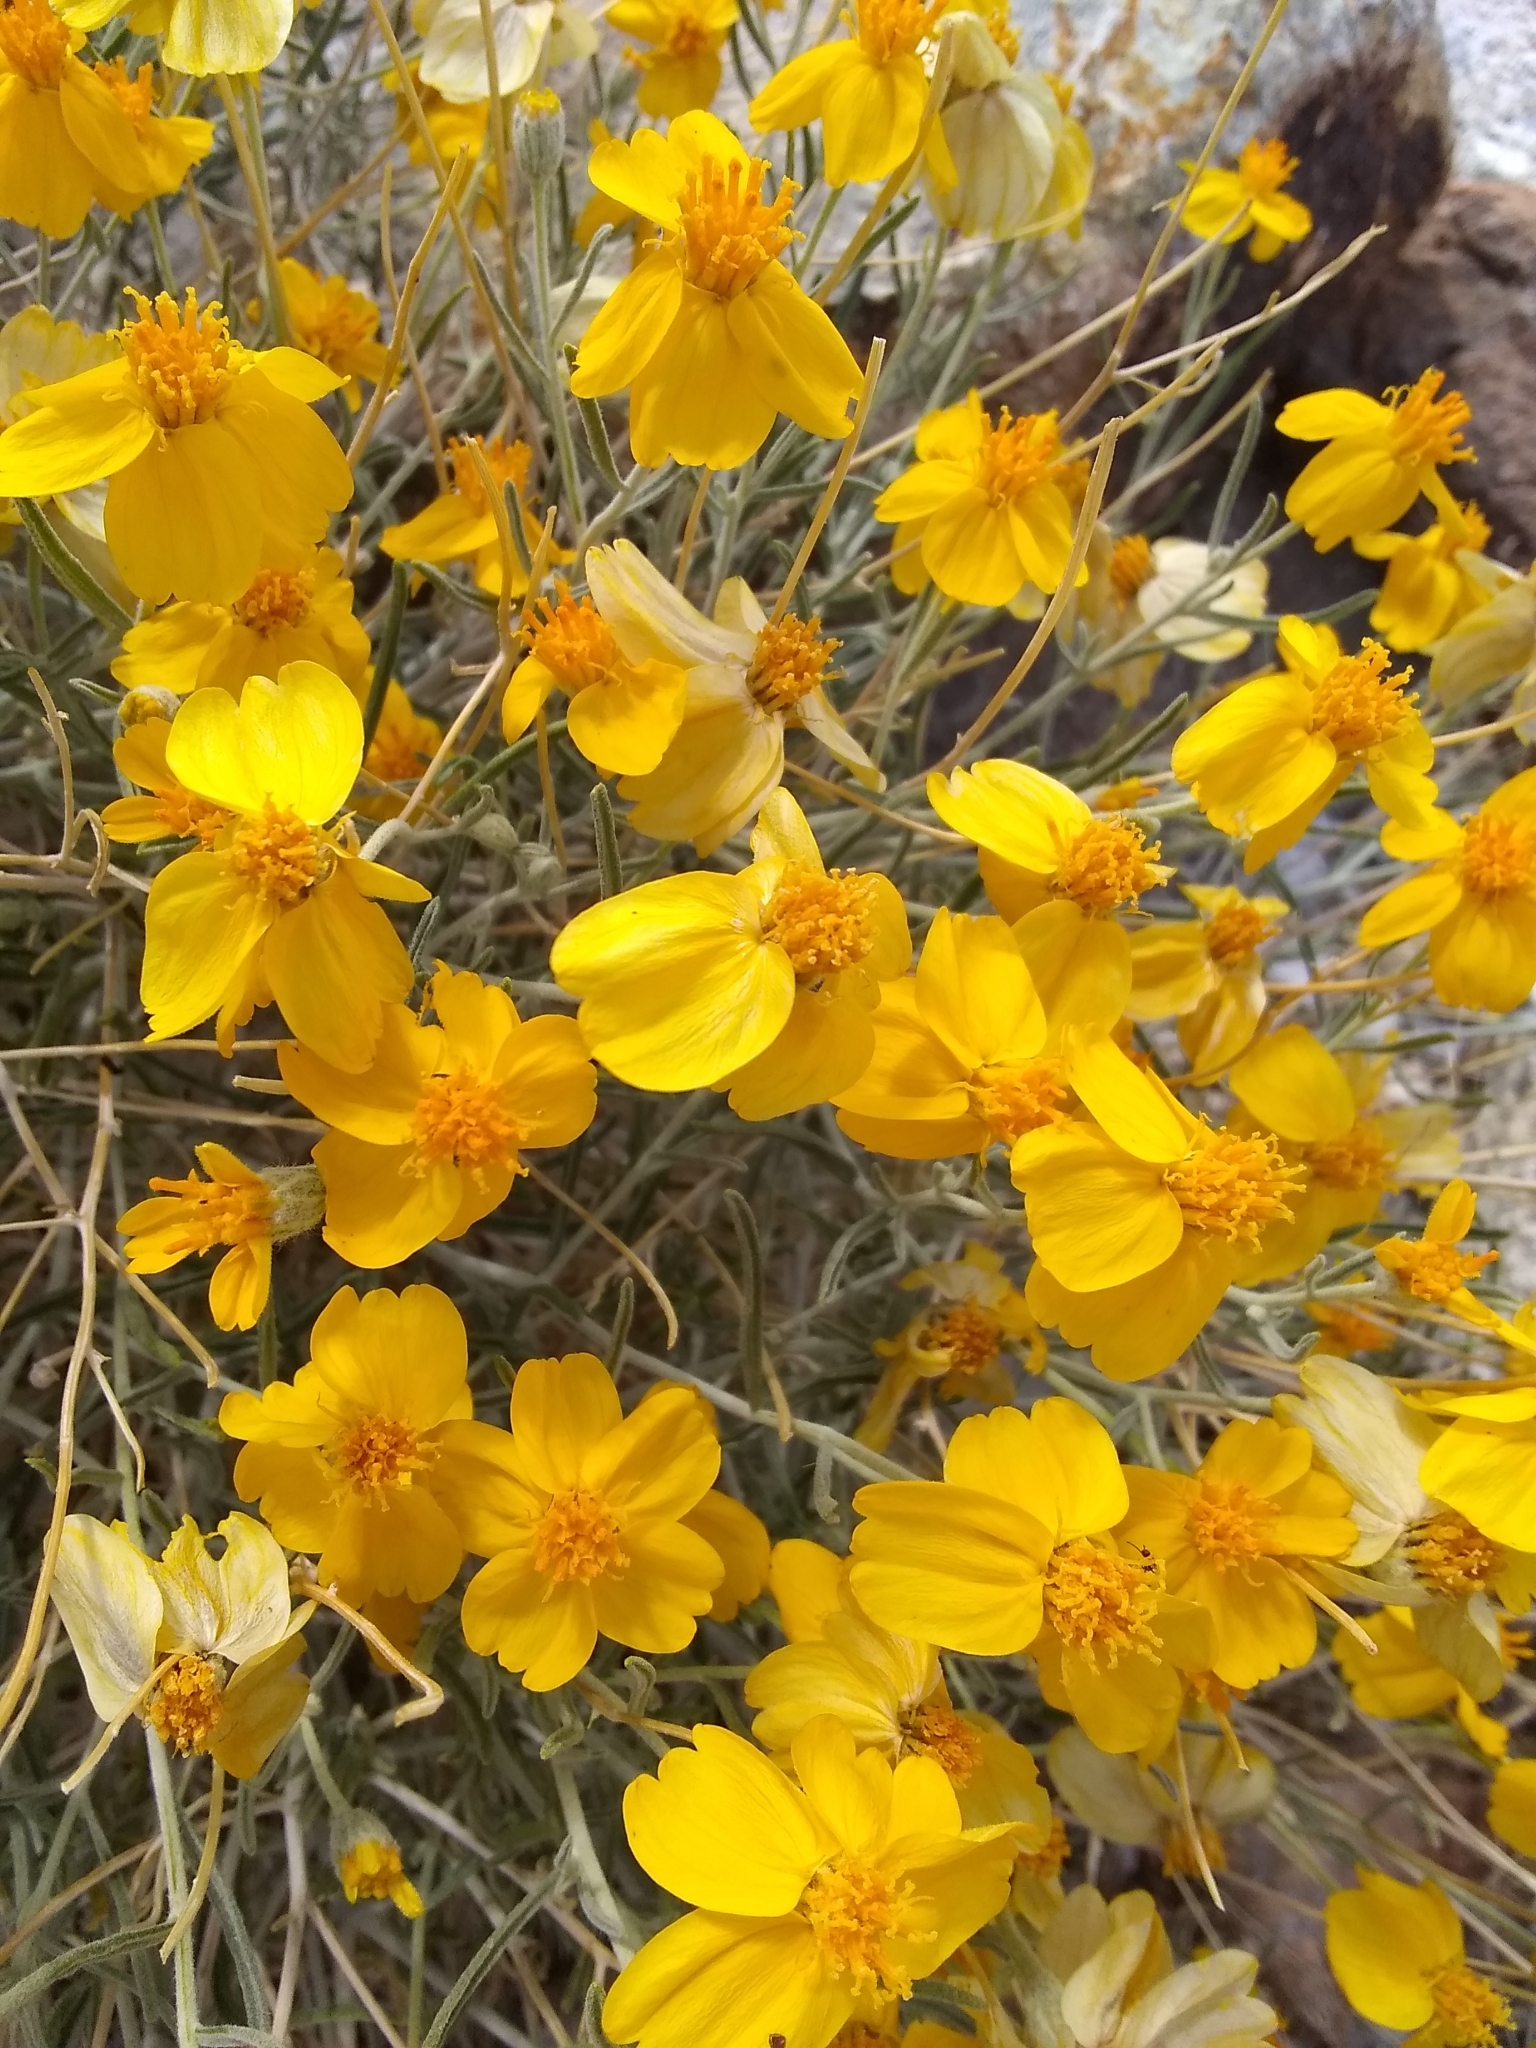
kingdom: Plantae
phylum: Tracheophyta
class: Magnoliopsida
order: Asterales
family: Asteraceae
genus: Psilostrophe
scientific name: Psilostrophe cooperi
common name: White-stem paper-flower
